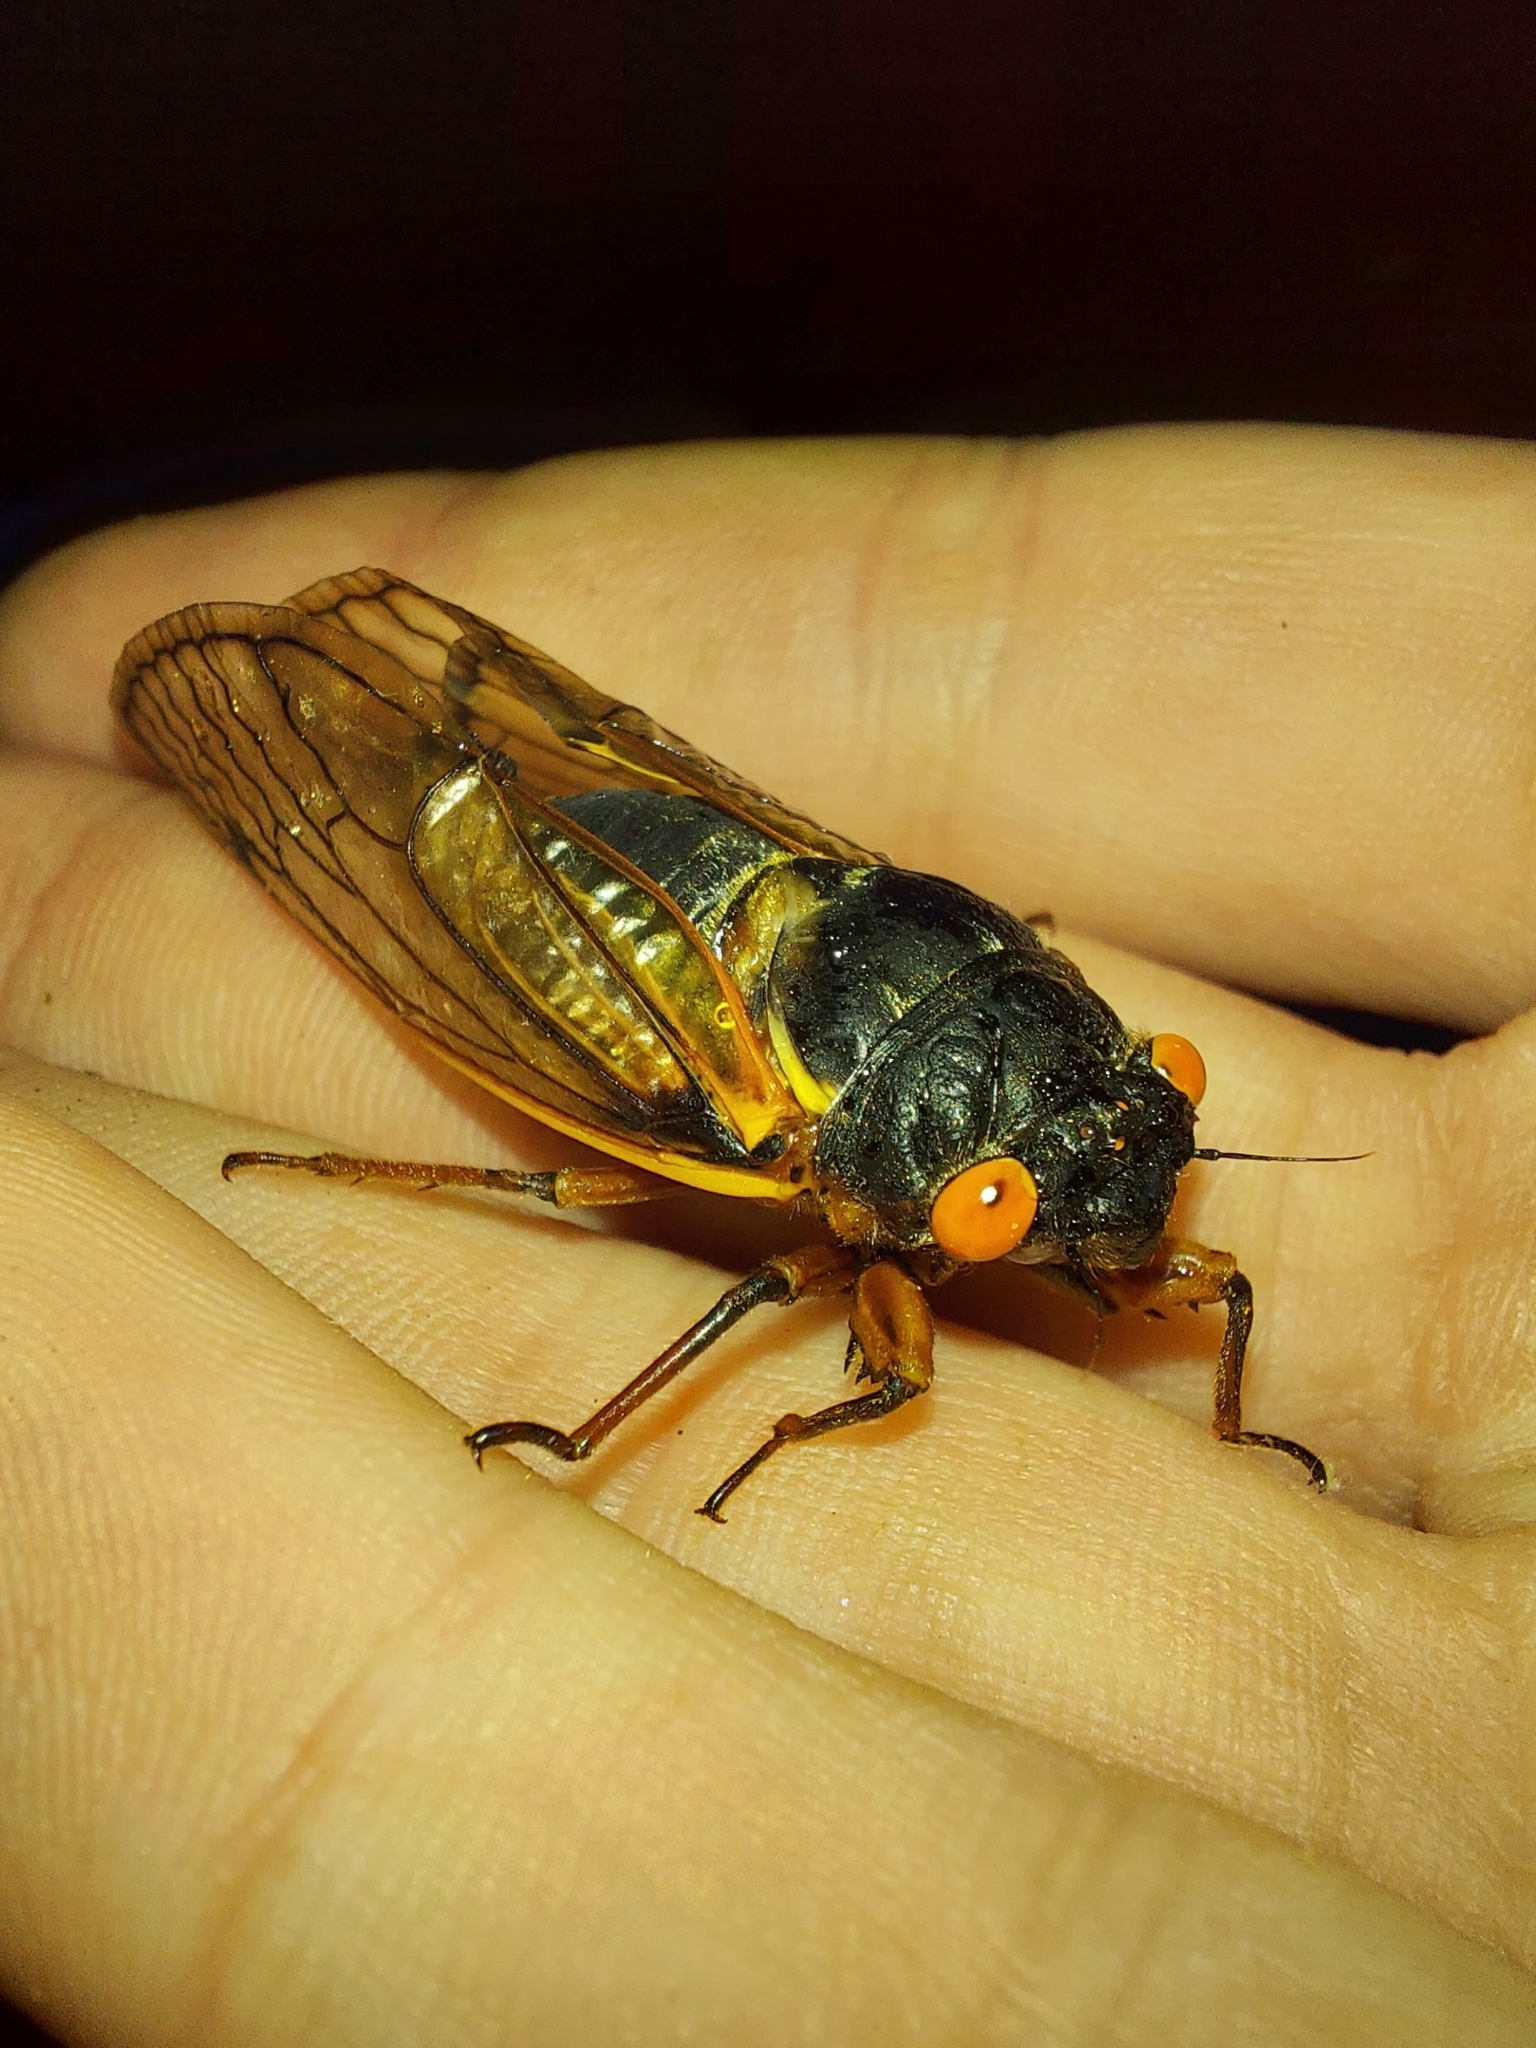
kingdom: Animalia
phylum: Arthropoda
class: Insecta
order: Hemiptera
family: Cicadidae
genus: Magicicada
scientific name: Magicicada septendecim
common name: Periodical cicada
